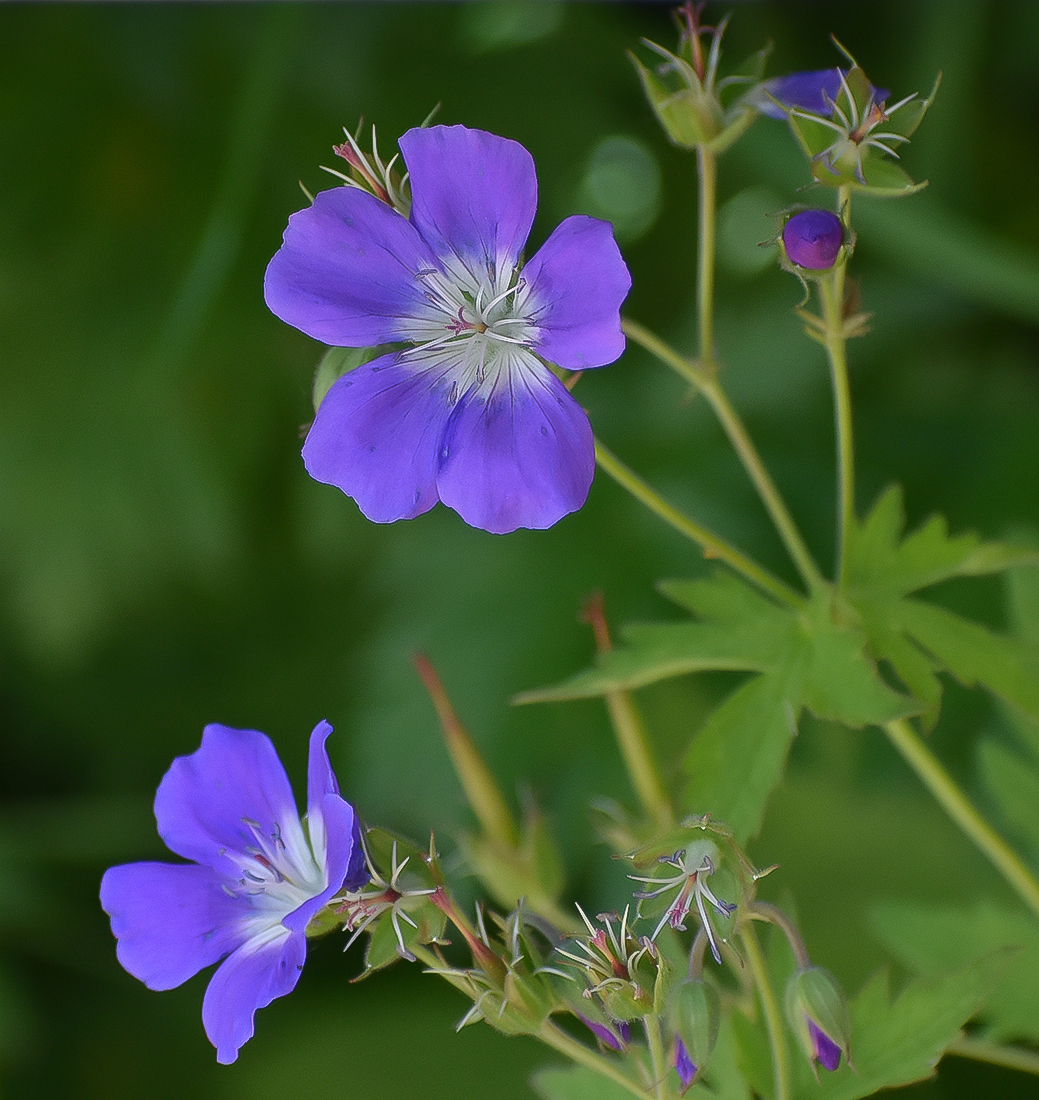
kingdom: Plantae
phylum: Tracheophyta
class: Magnoliopsida
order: Geraniales
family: Geraniaceae
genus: Geranium
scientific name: Geranium sylvaticum
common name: Wood crane's-bill
